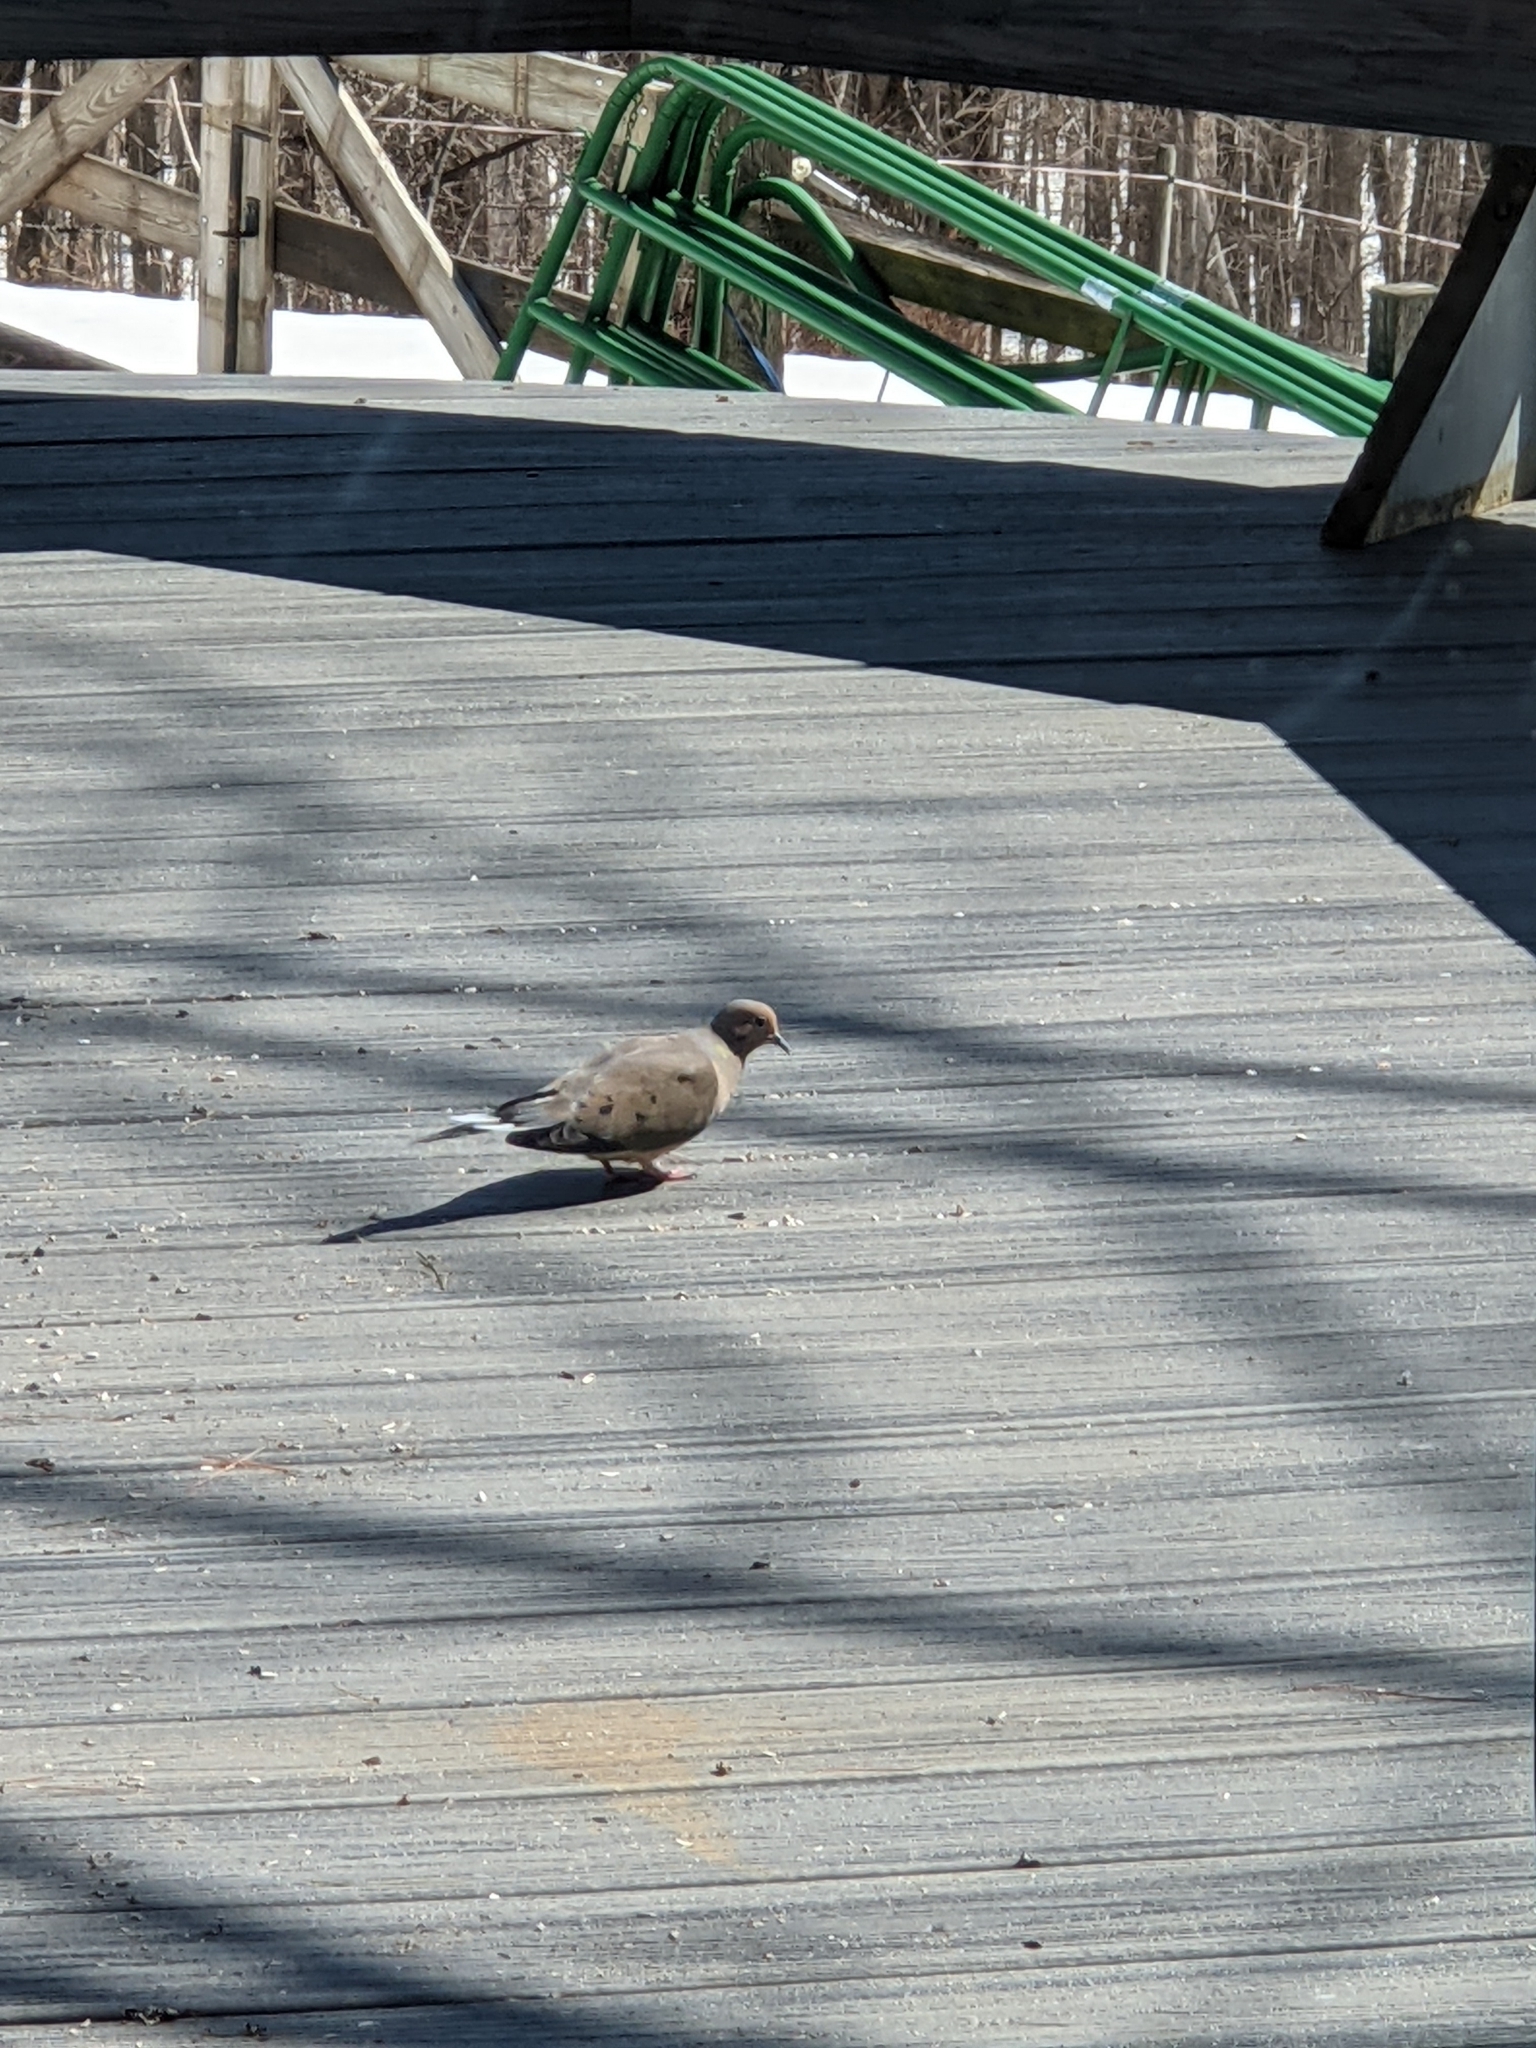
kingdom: Animalia
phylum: Chordata
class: Aves
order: Columbiformes
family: Columbidae
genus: Zenaida
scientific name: Zenaida macroura
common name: Mourning dove
